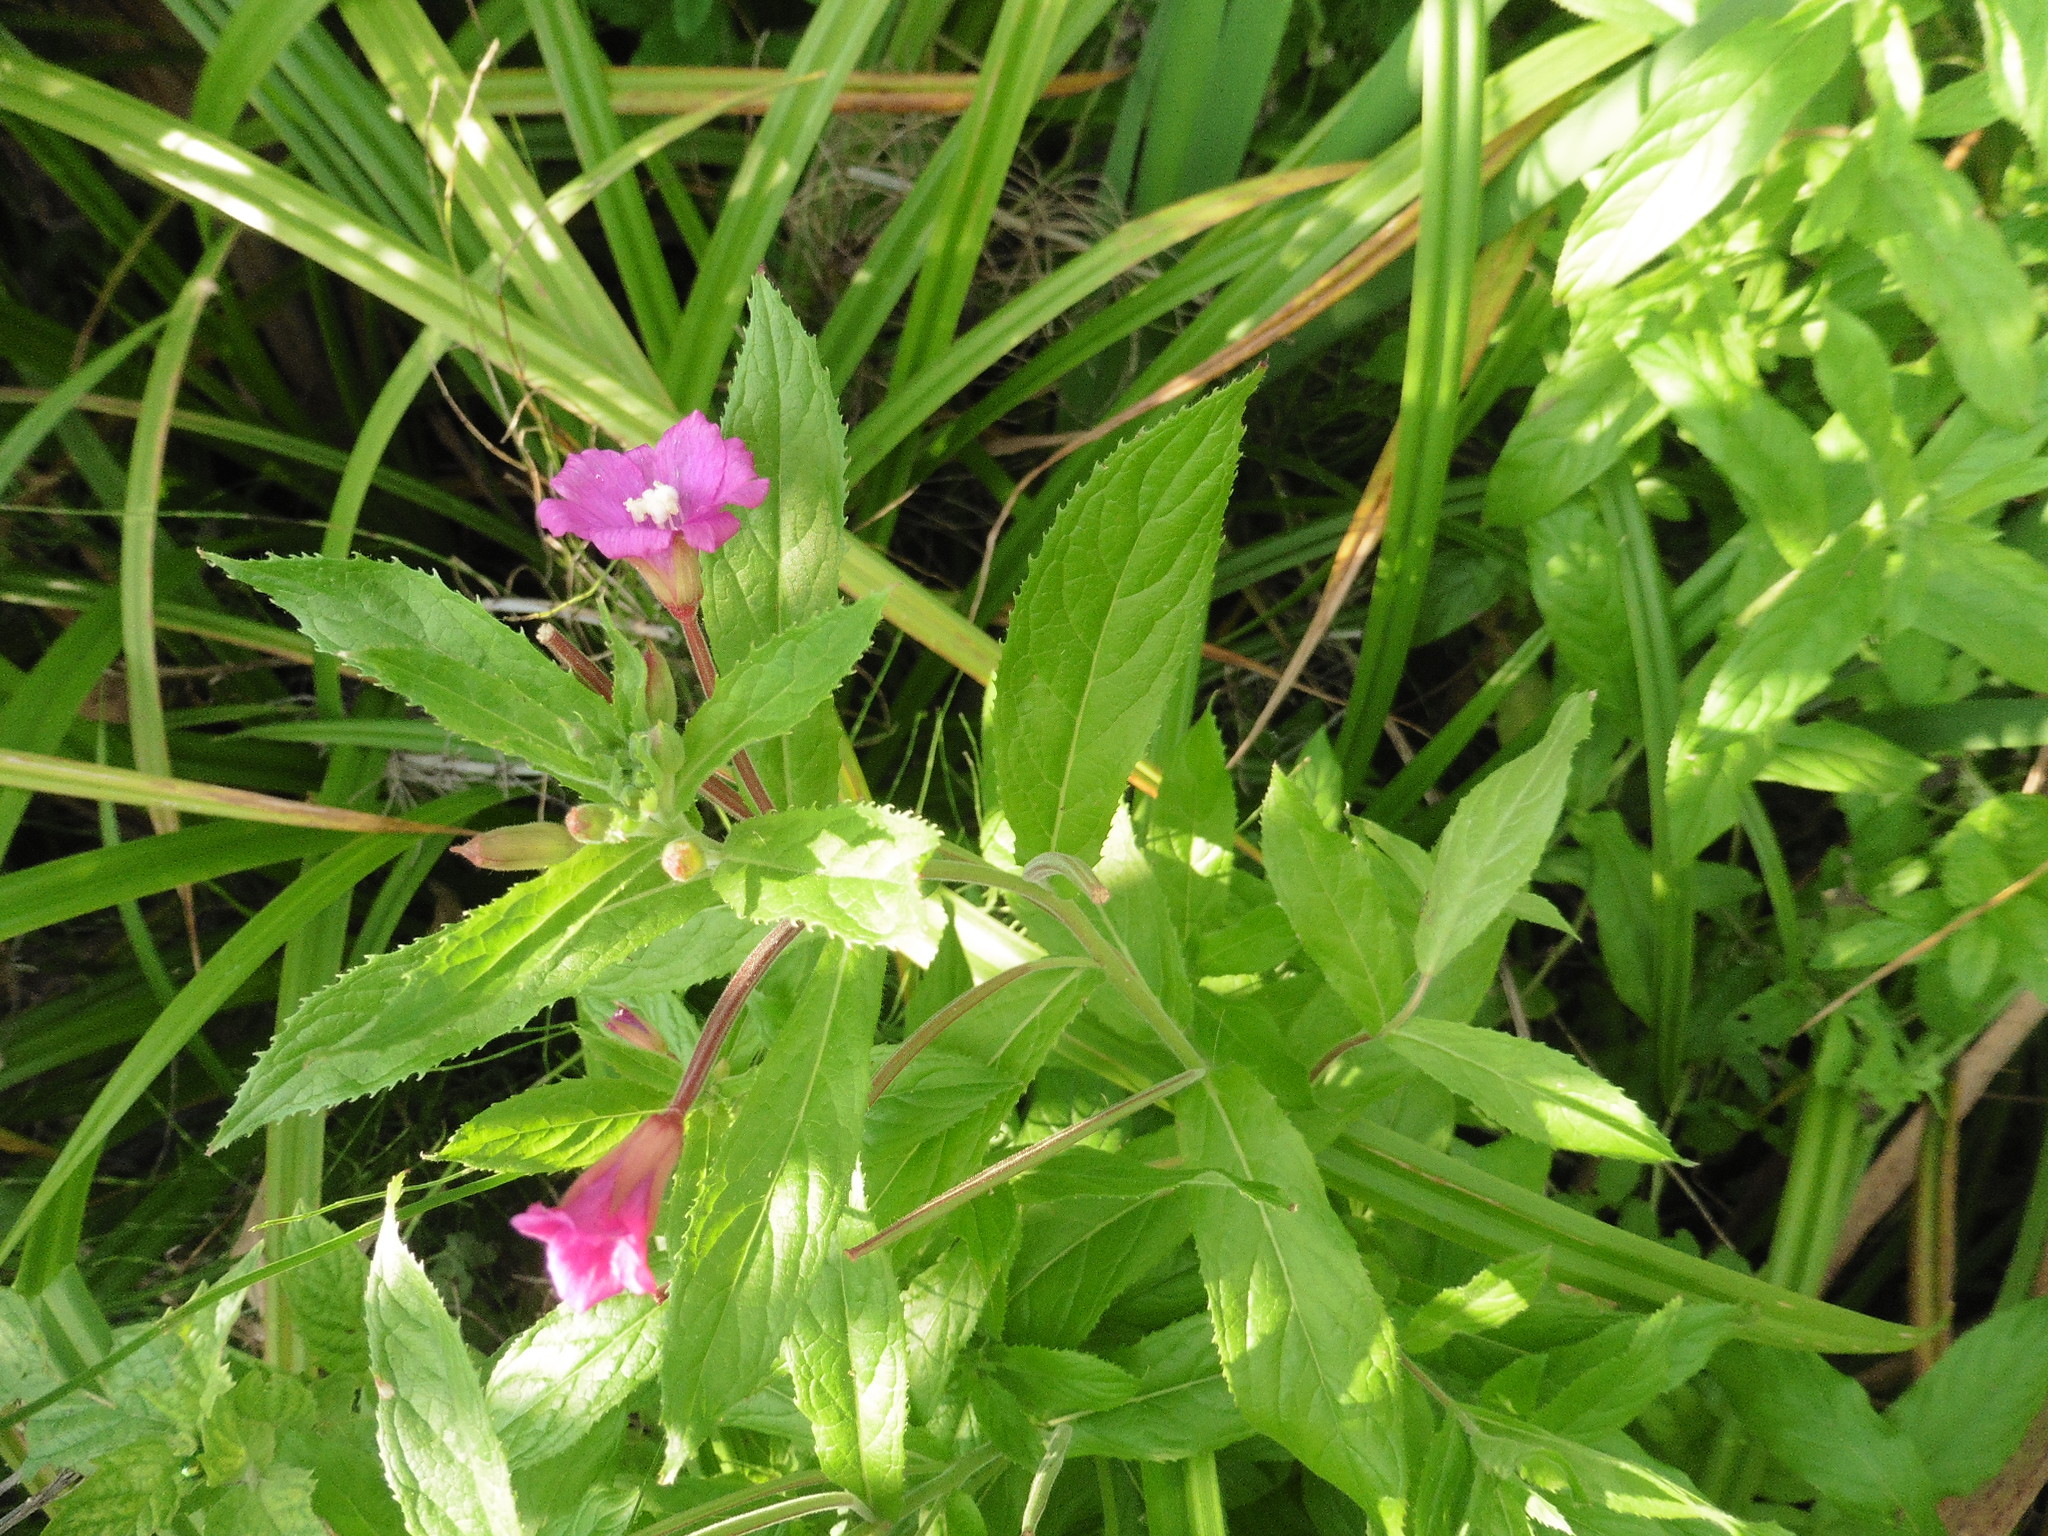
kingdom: Plantae
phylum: Tracheophyta
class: Magnoliopsida
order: Myrtales
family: Onagraceae
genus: Epilobium
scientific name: Epilobium hirsutum
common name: Great willowherb
